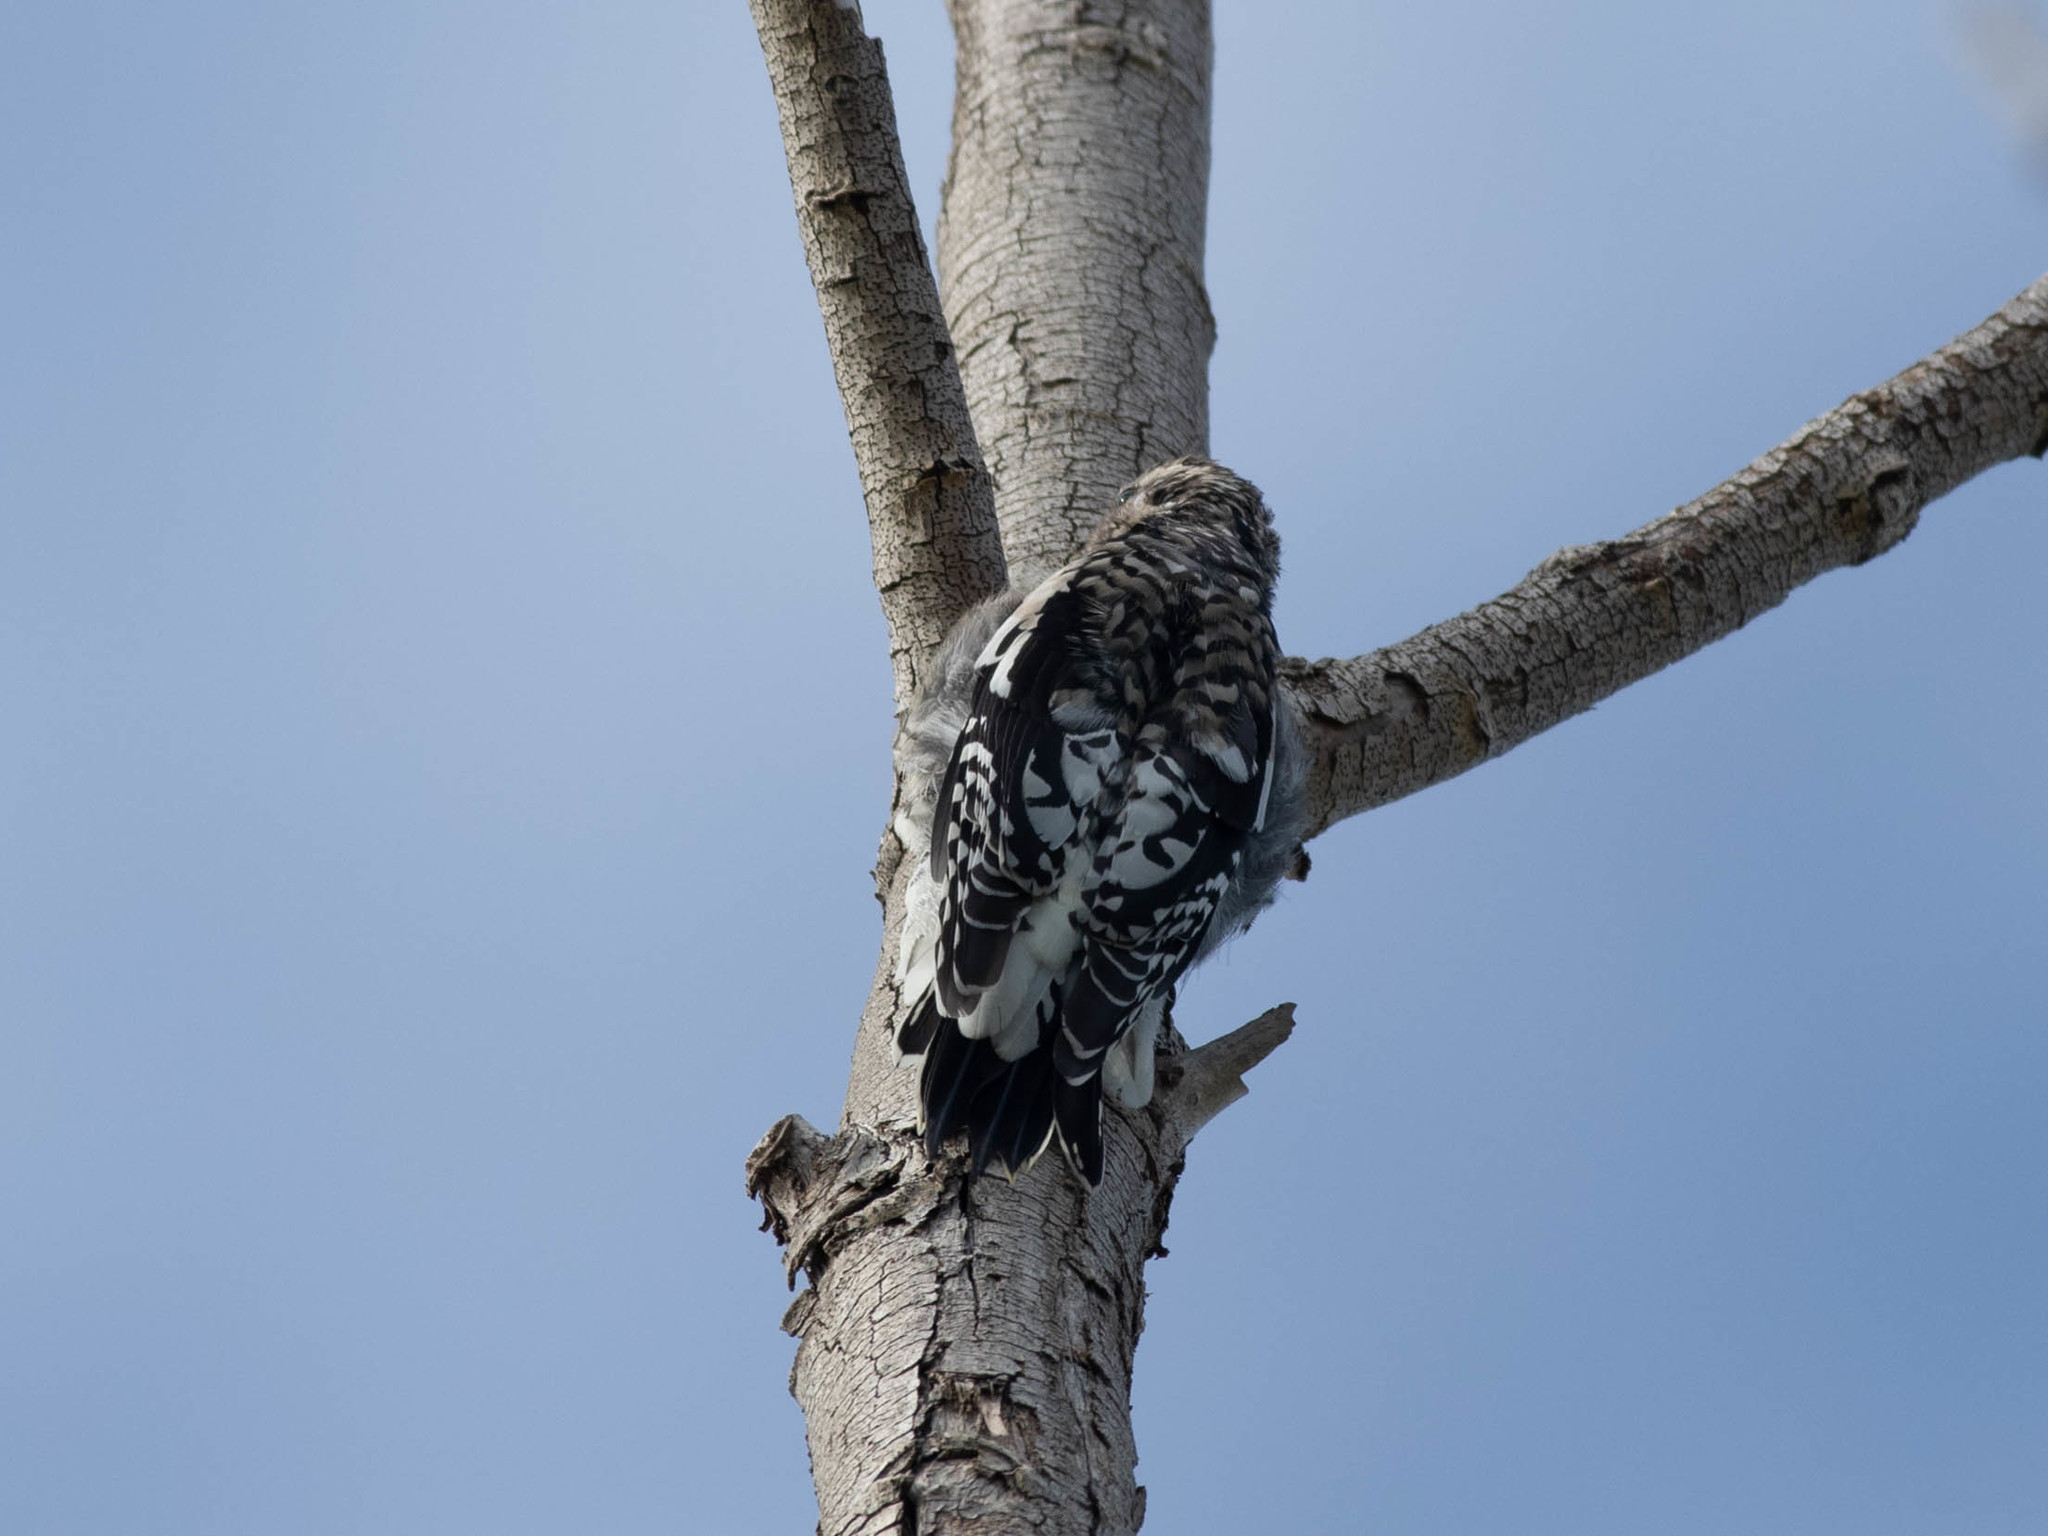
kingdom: Animalia
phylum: Chordata
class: Aves
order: Piciformes
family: Picidae
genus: Sphyrapicus
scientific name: Sphyrapicus varius
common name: Yellow-bellied sapsucker
